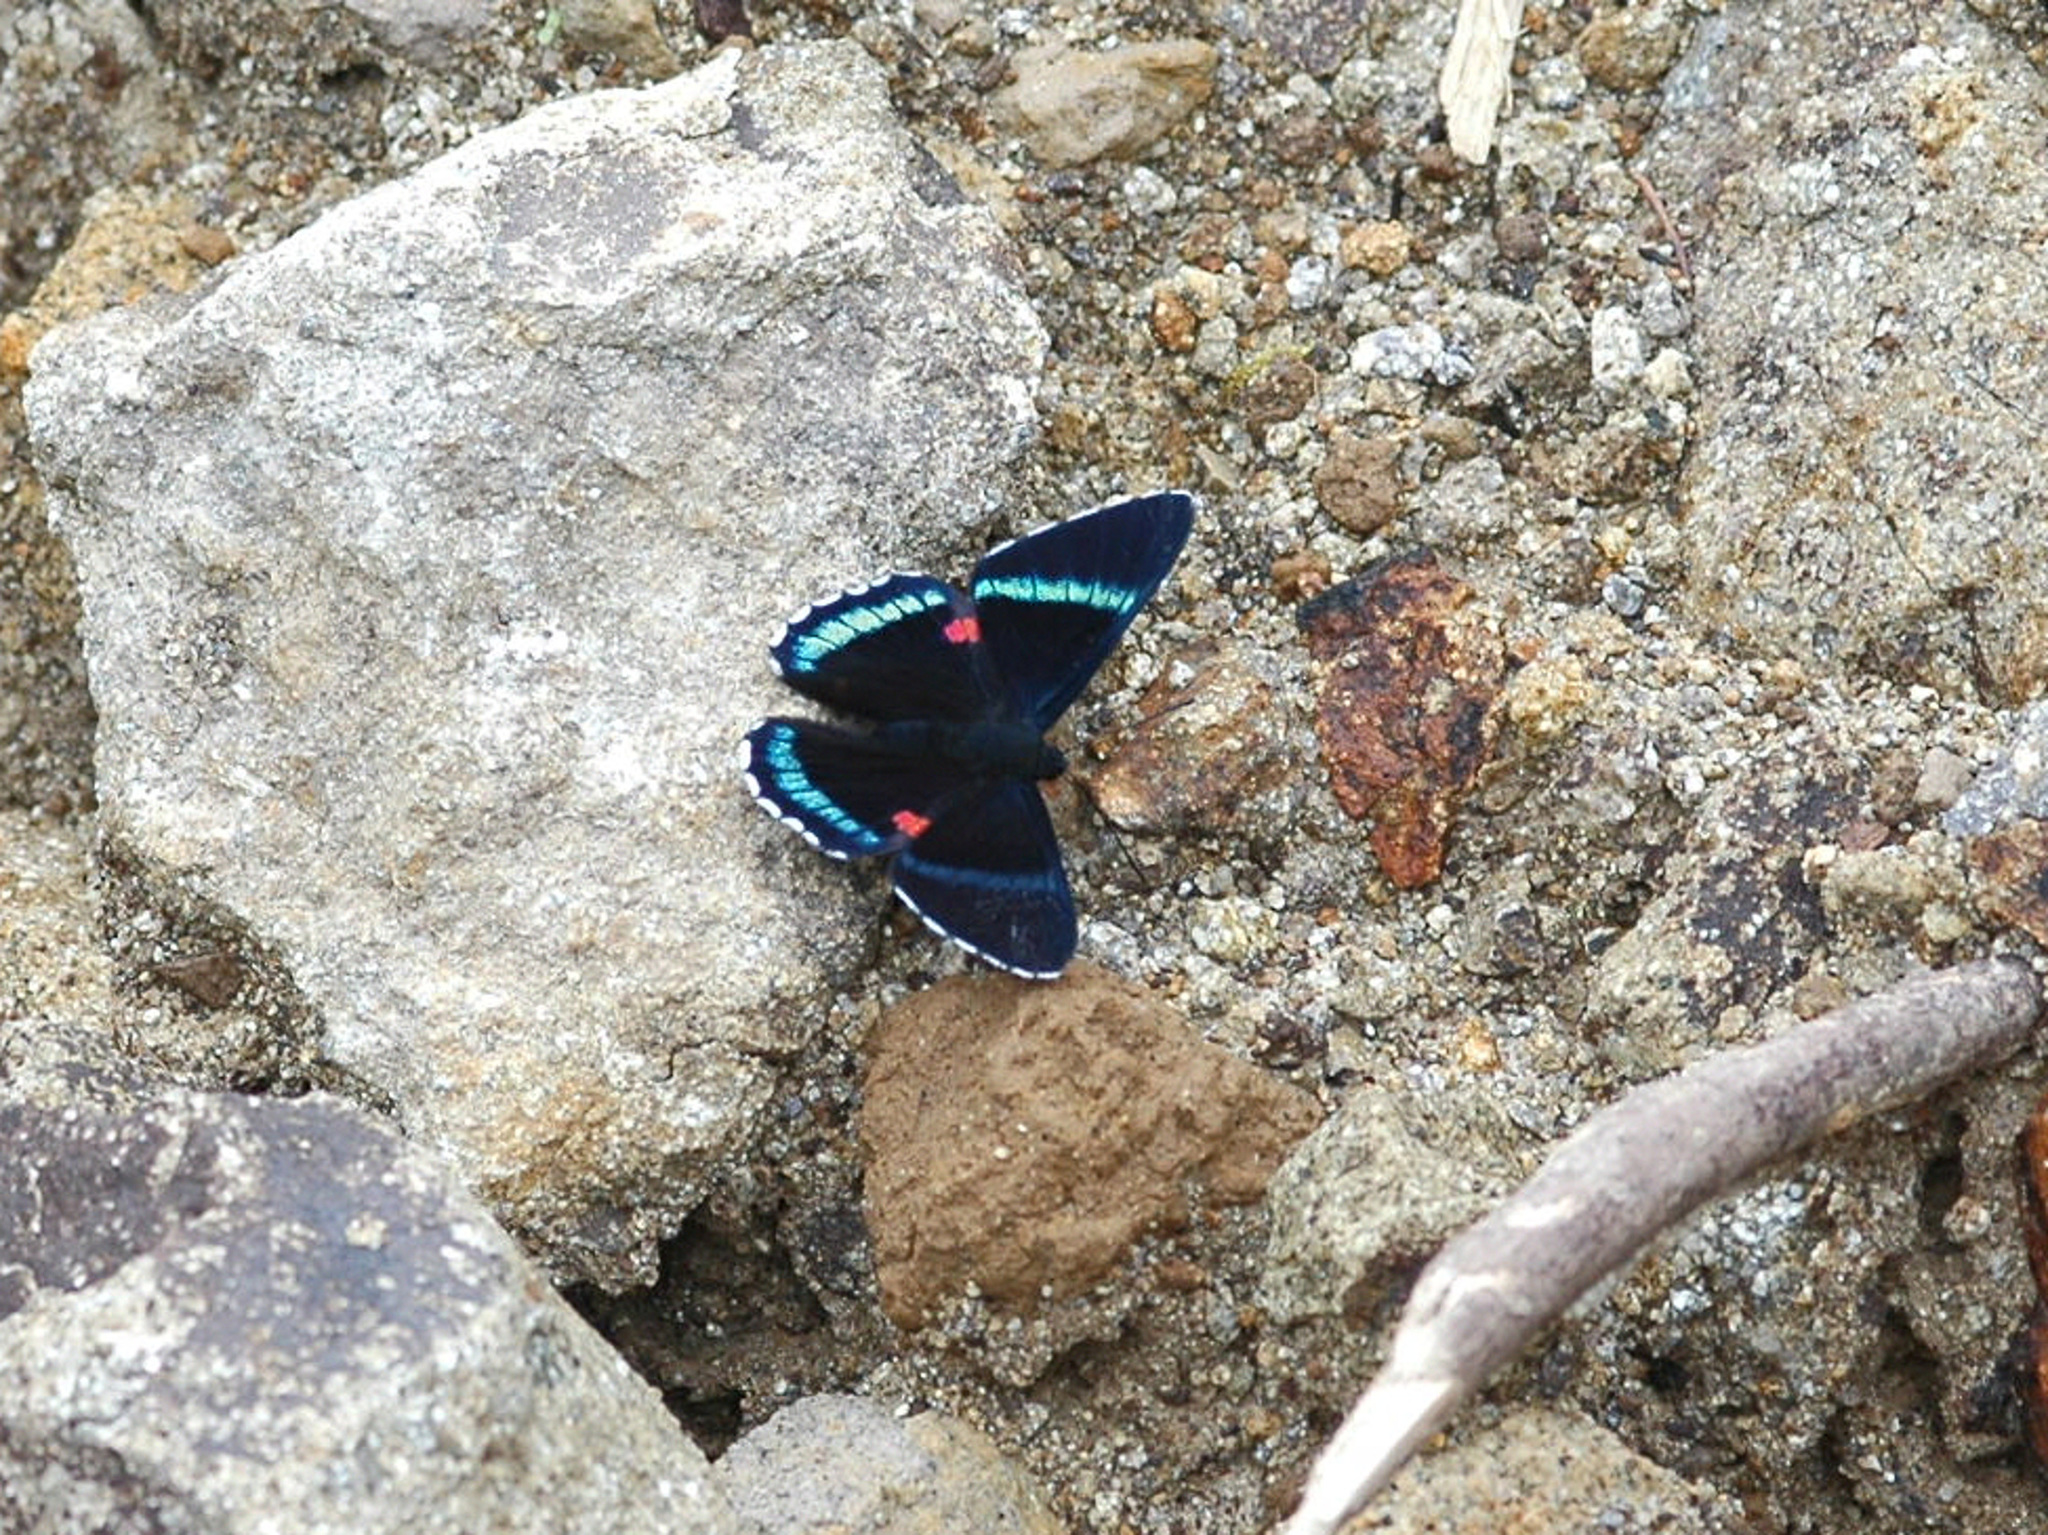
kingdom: Animalia
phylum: Arthropoda
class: Insecta
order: Lepidoptera
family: Lycaenidae
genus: Necyria
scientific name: Necyria bellona
